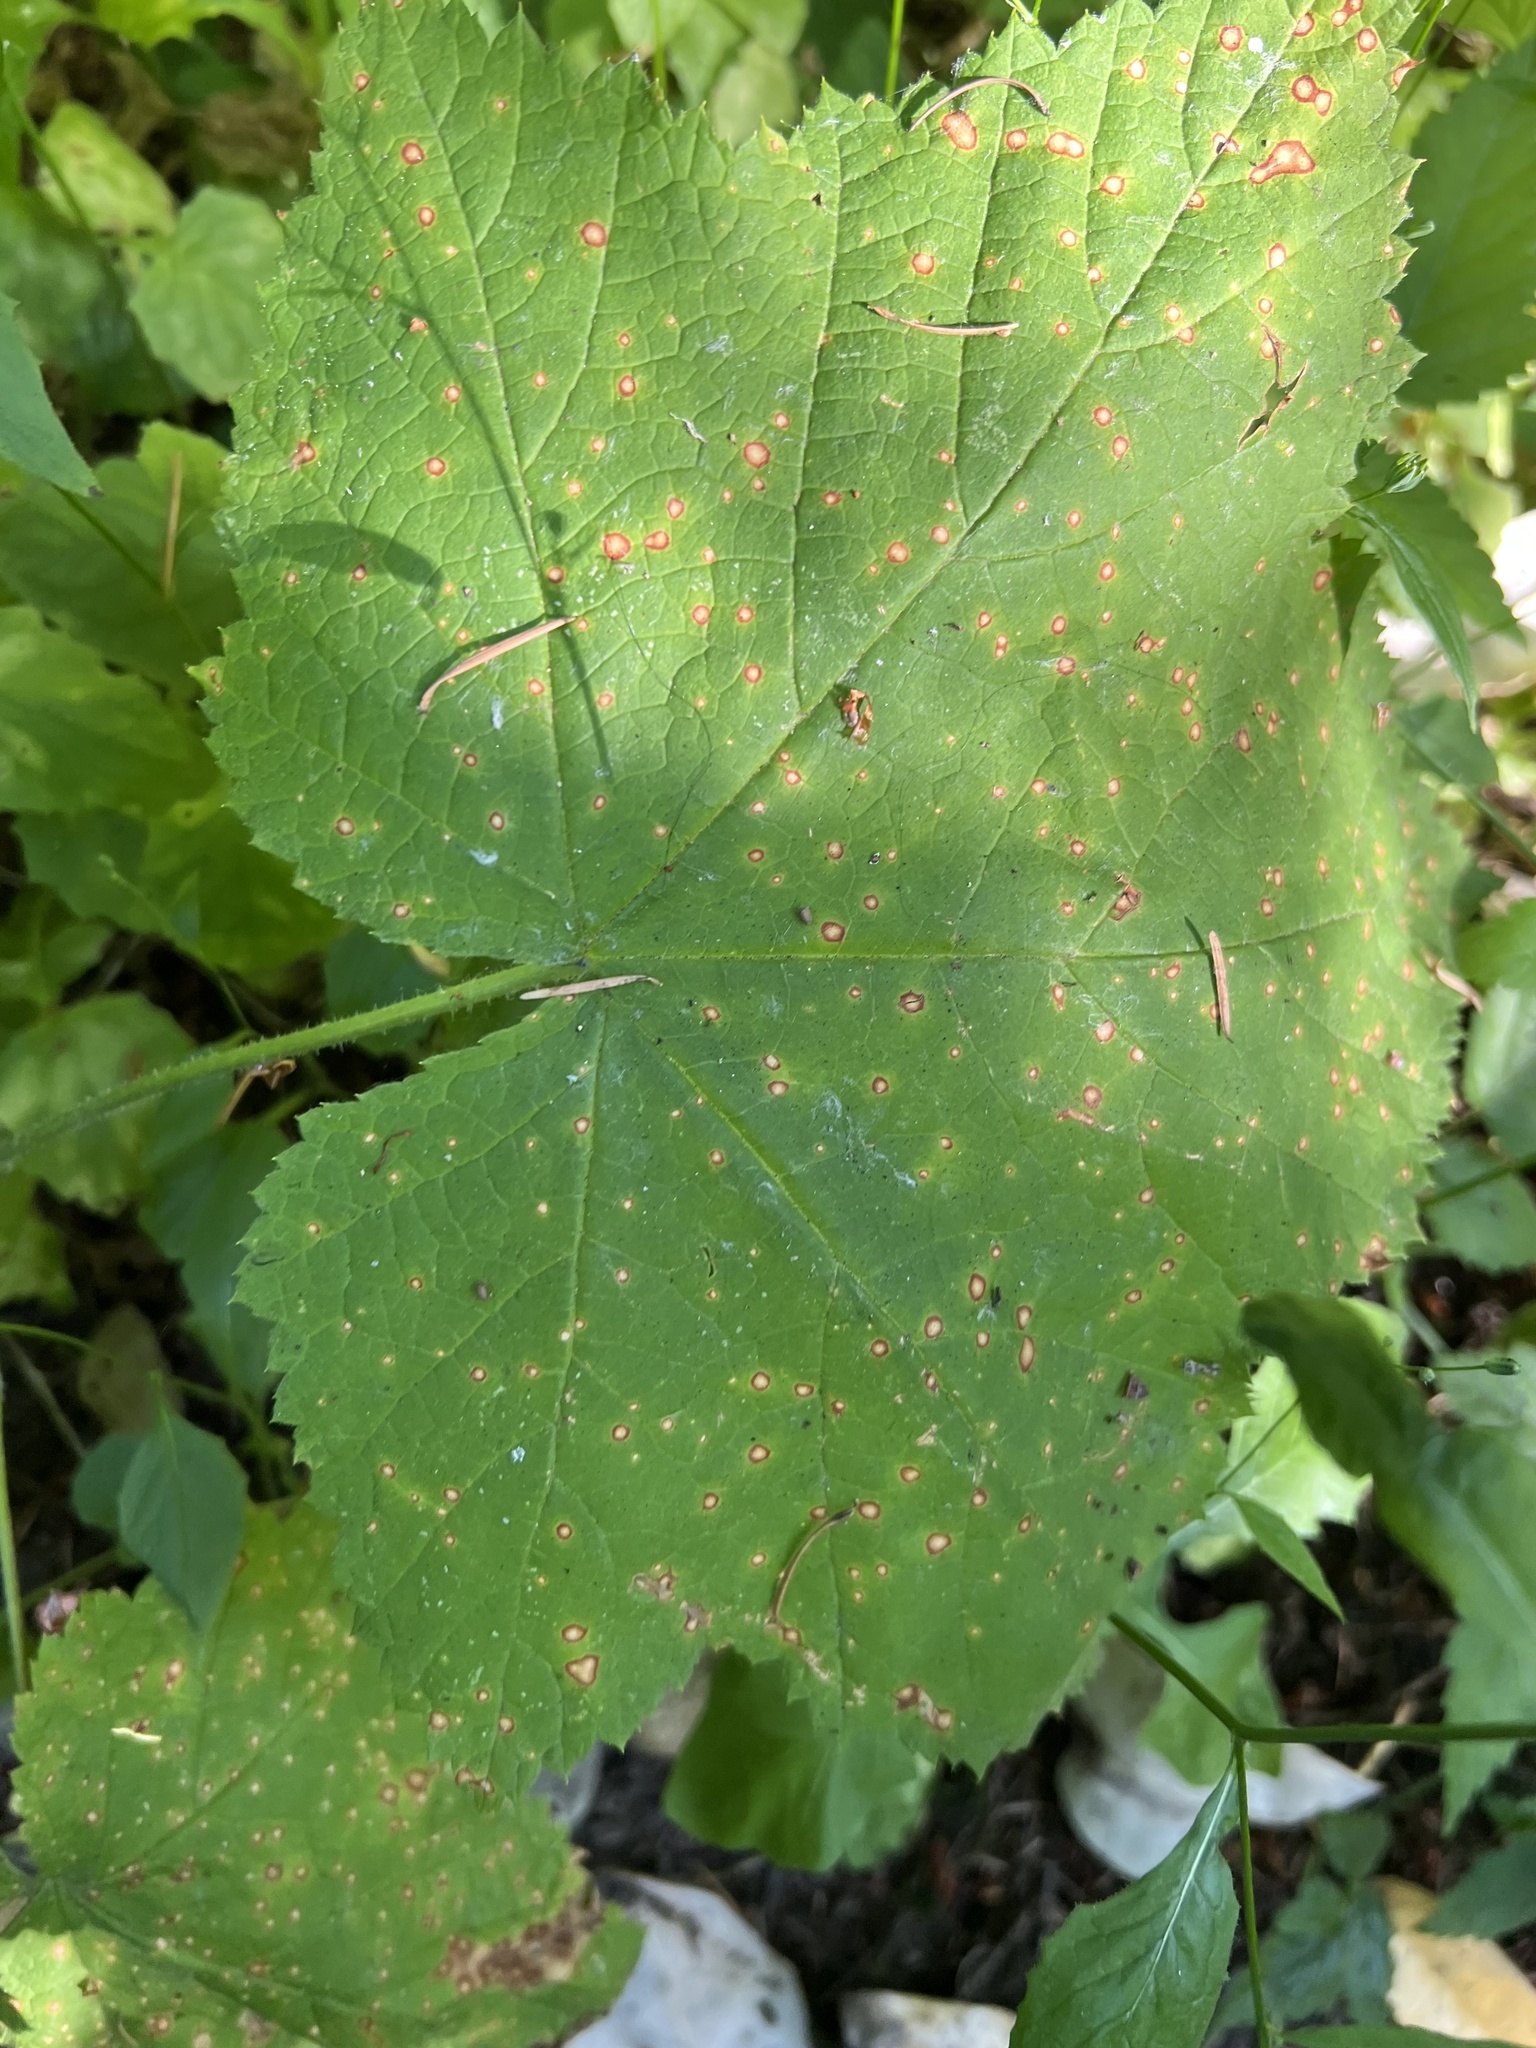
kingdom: Plantae
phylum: Tracheophyta
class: Magnoliopsida
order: Rosales
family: Rosaceae
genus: Rubus
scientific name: Rubus parviflorus
